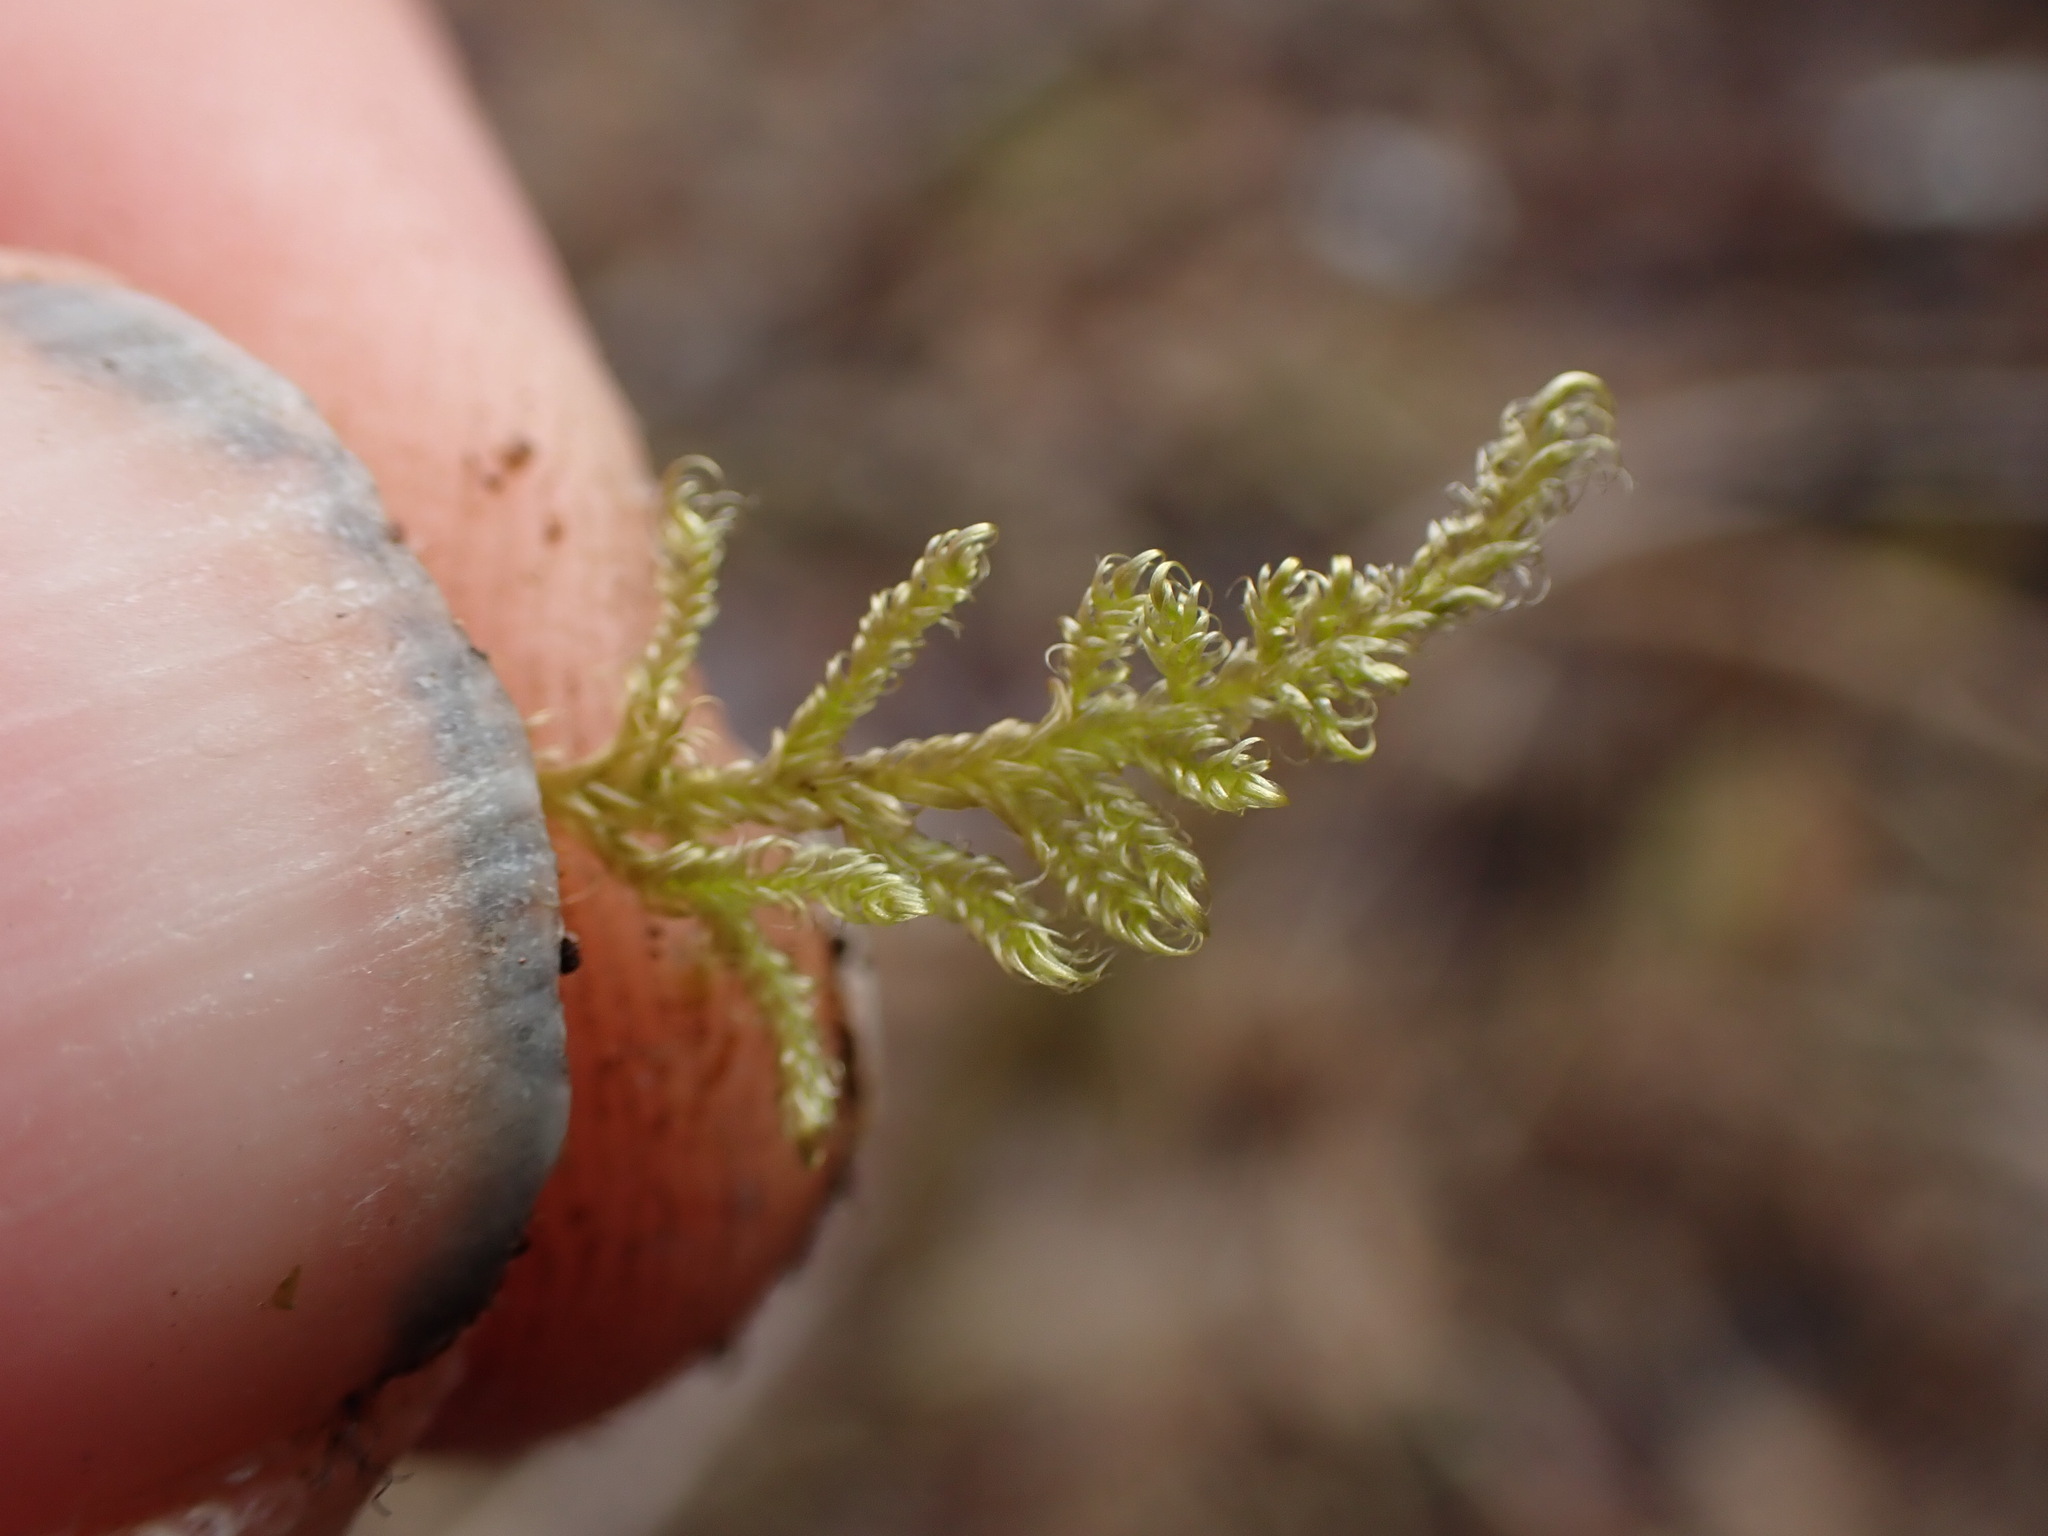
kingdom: Plantae
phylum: Bryophyta
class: Bryopsida
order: Hypnales
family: Scorpidiaceae
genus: Sanionia
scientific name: Sanionia uncinata
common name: Sickle moss
